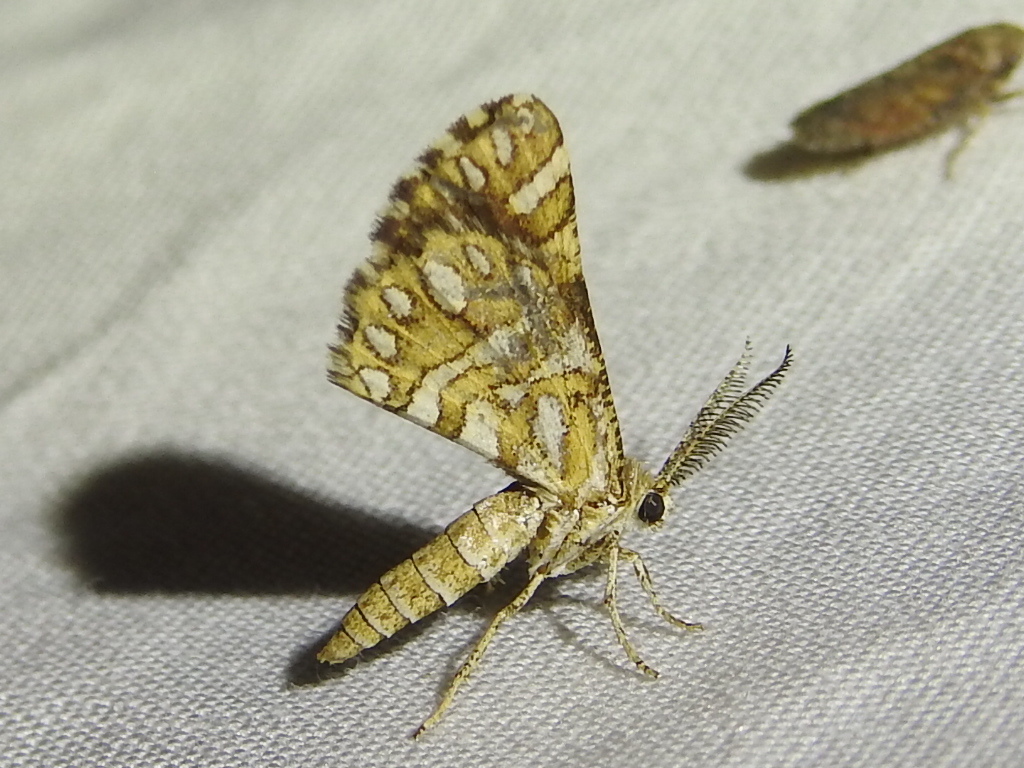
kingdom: Animalia
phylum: Arthropoda
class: Insecta
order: Lepidoptera
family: Geometridae
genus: Narraga
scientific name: Narraga fimetaria
